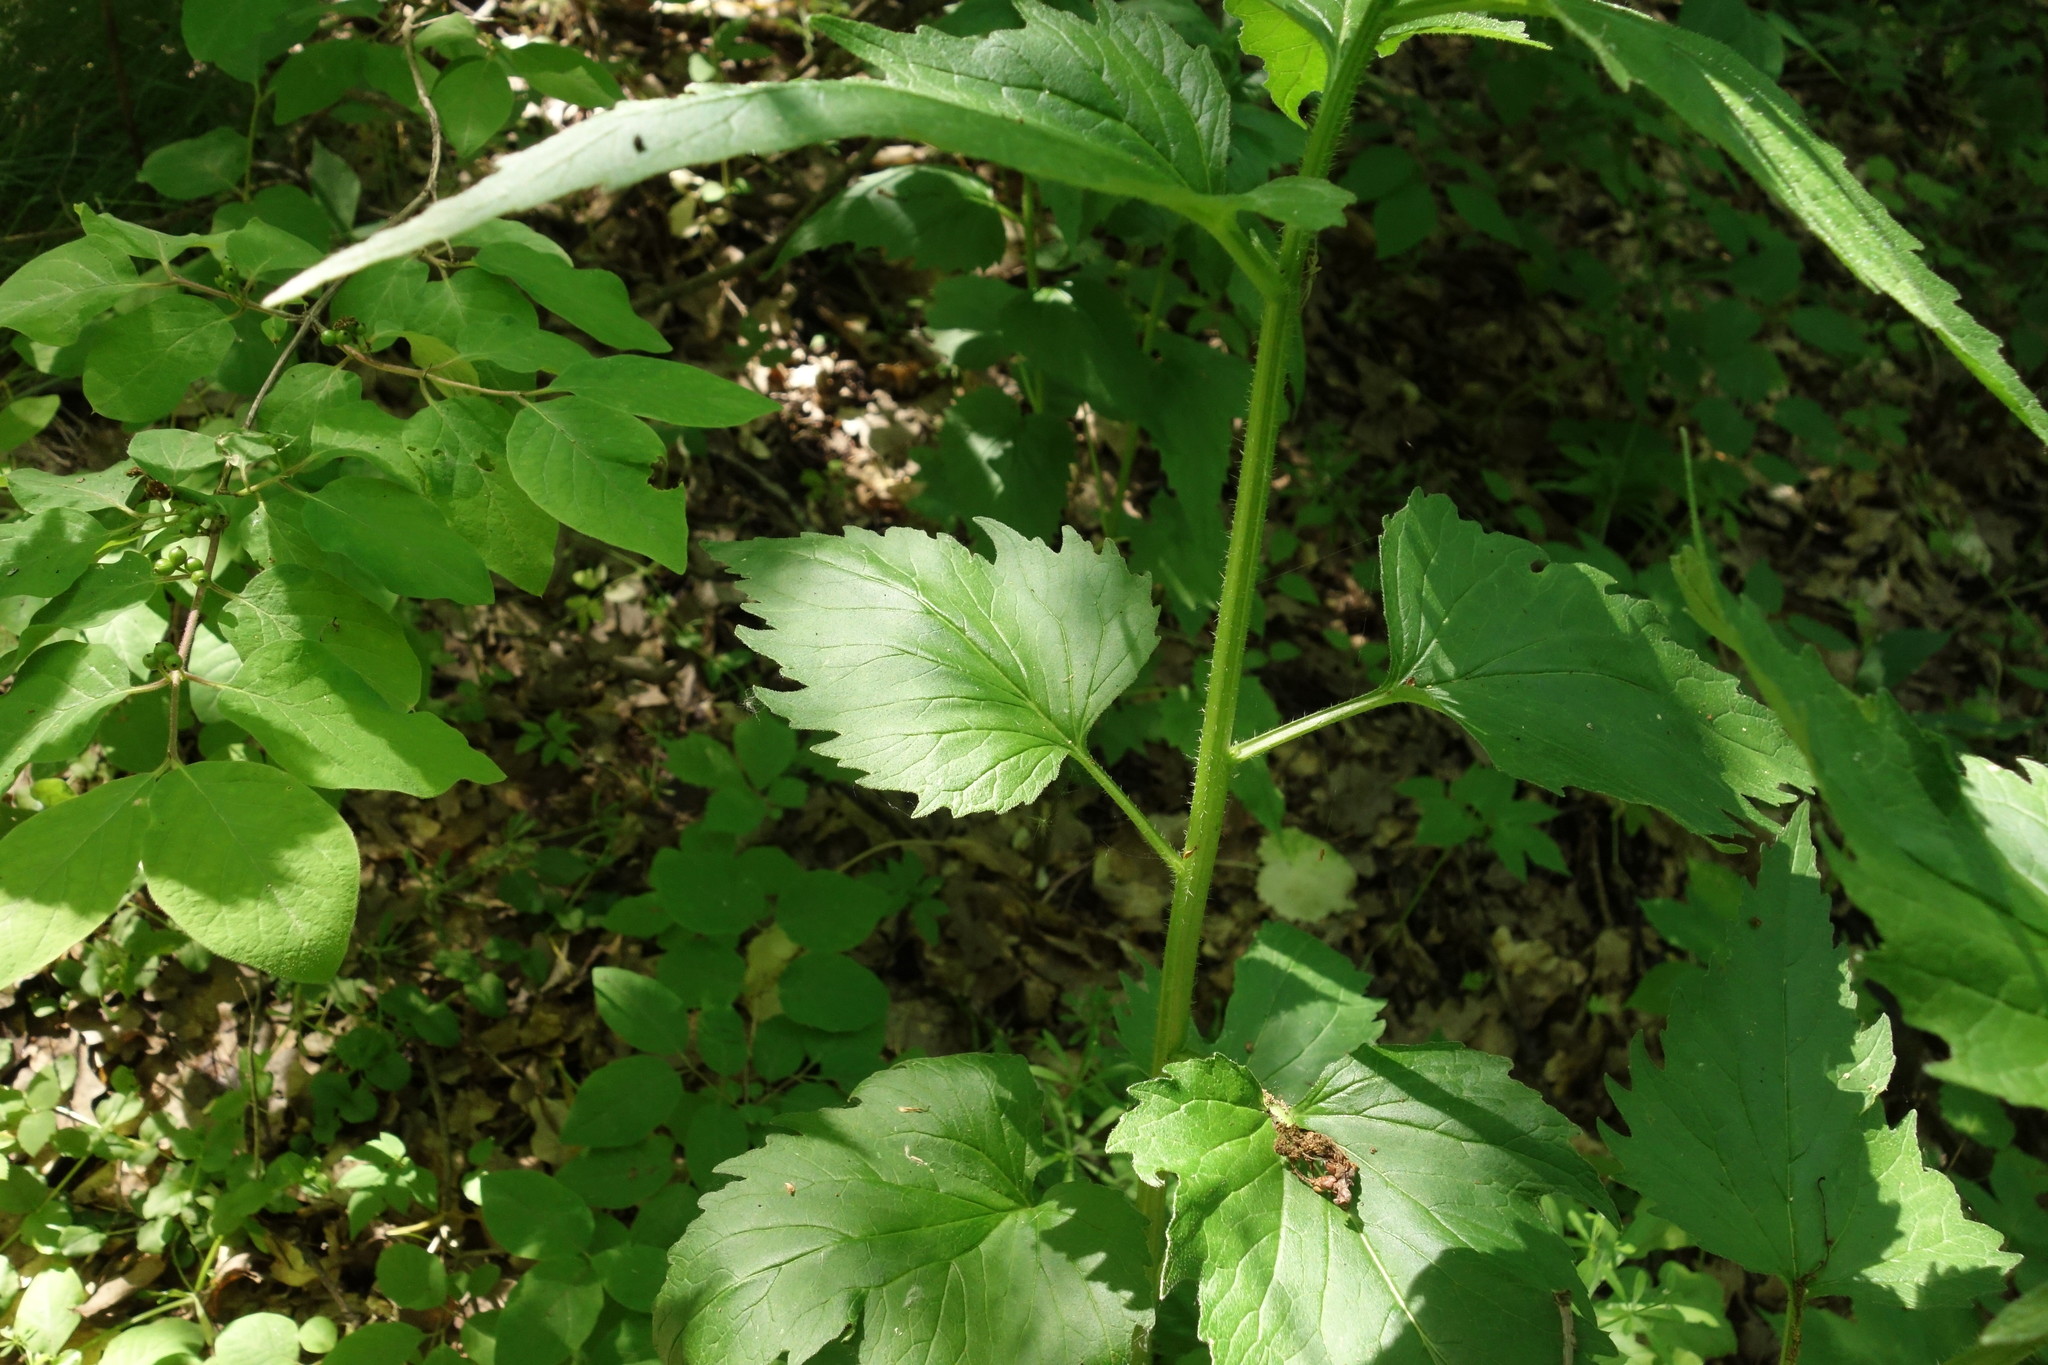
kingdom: Plantae
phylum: Tracheophyta
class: Magnoliopsida
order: Asterales
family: Campanulaceae
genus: Campanula
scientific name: Campanula trachelium
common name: Nettle-leaved bellflower
